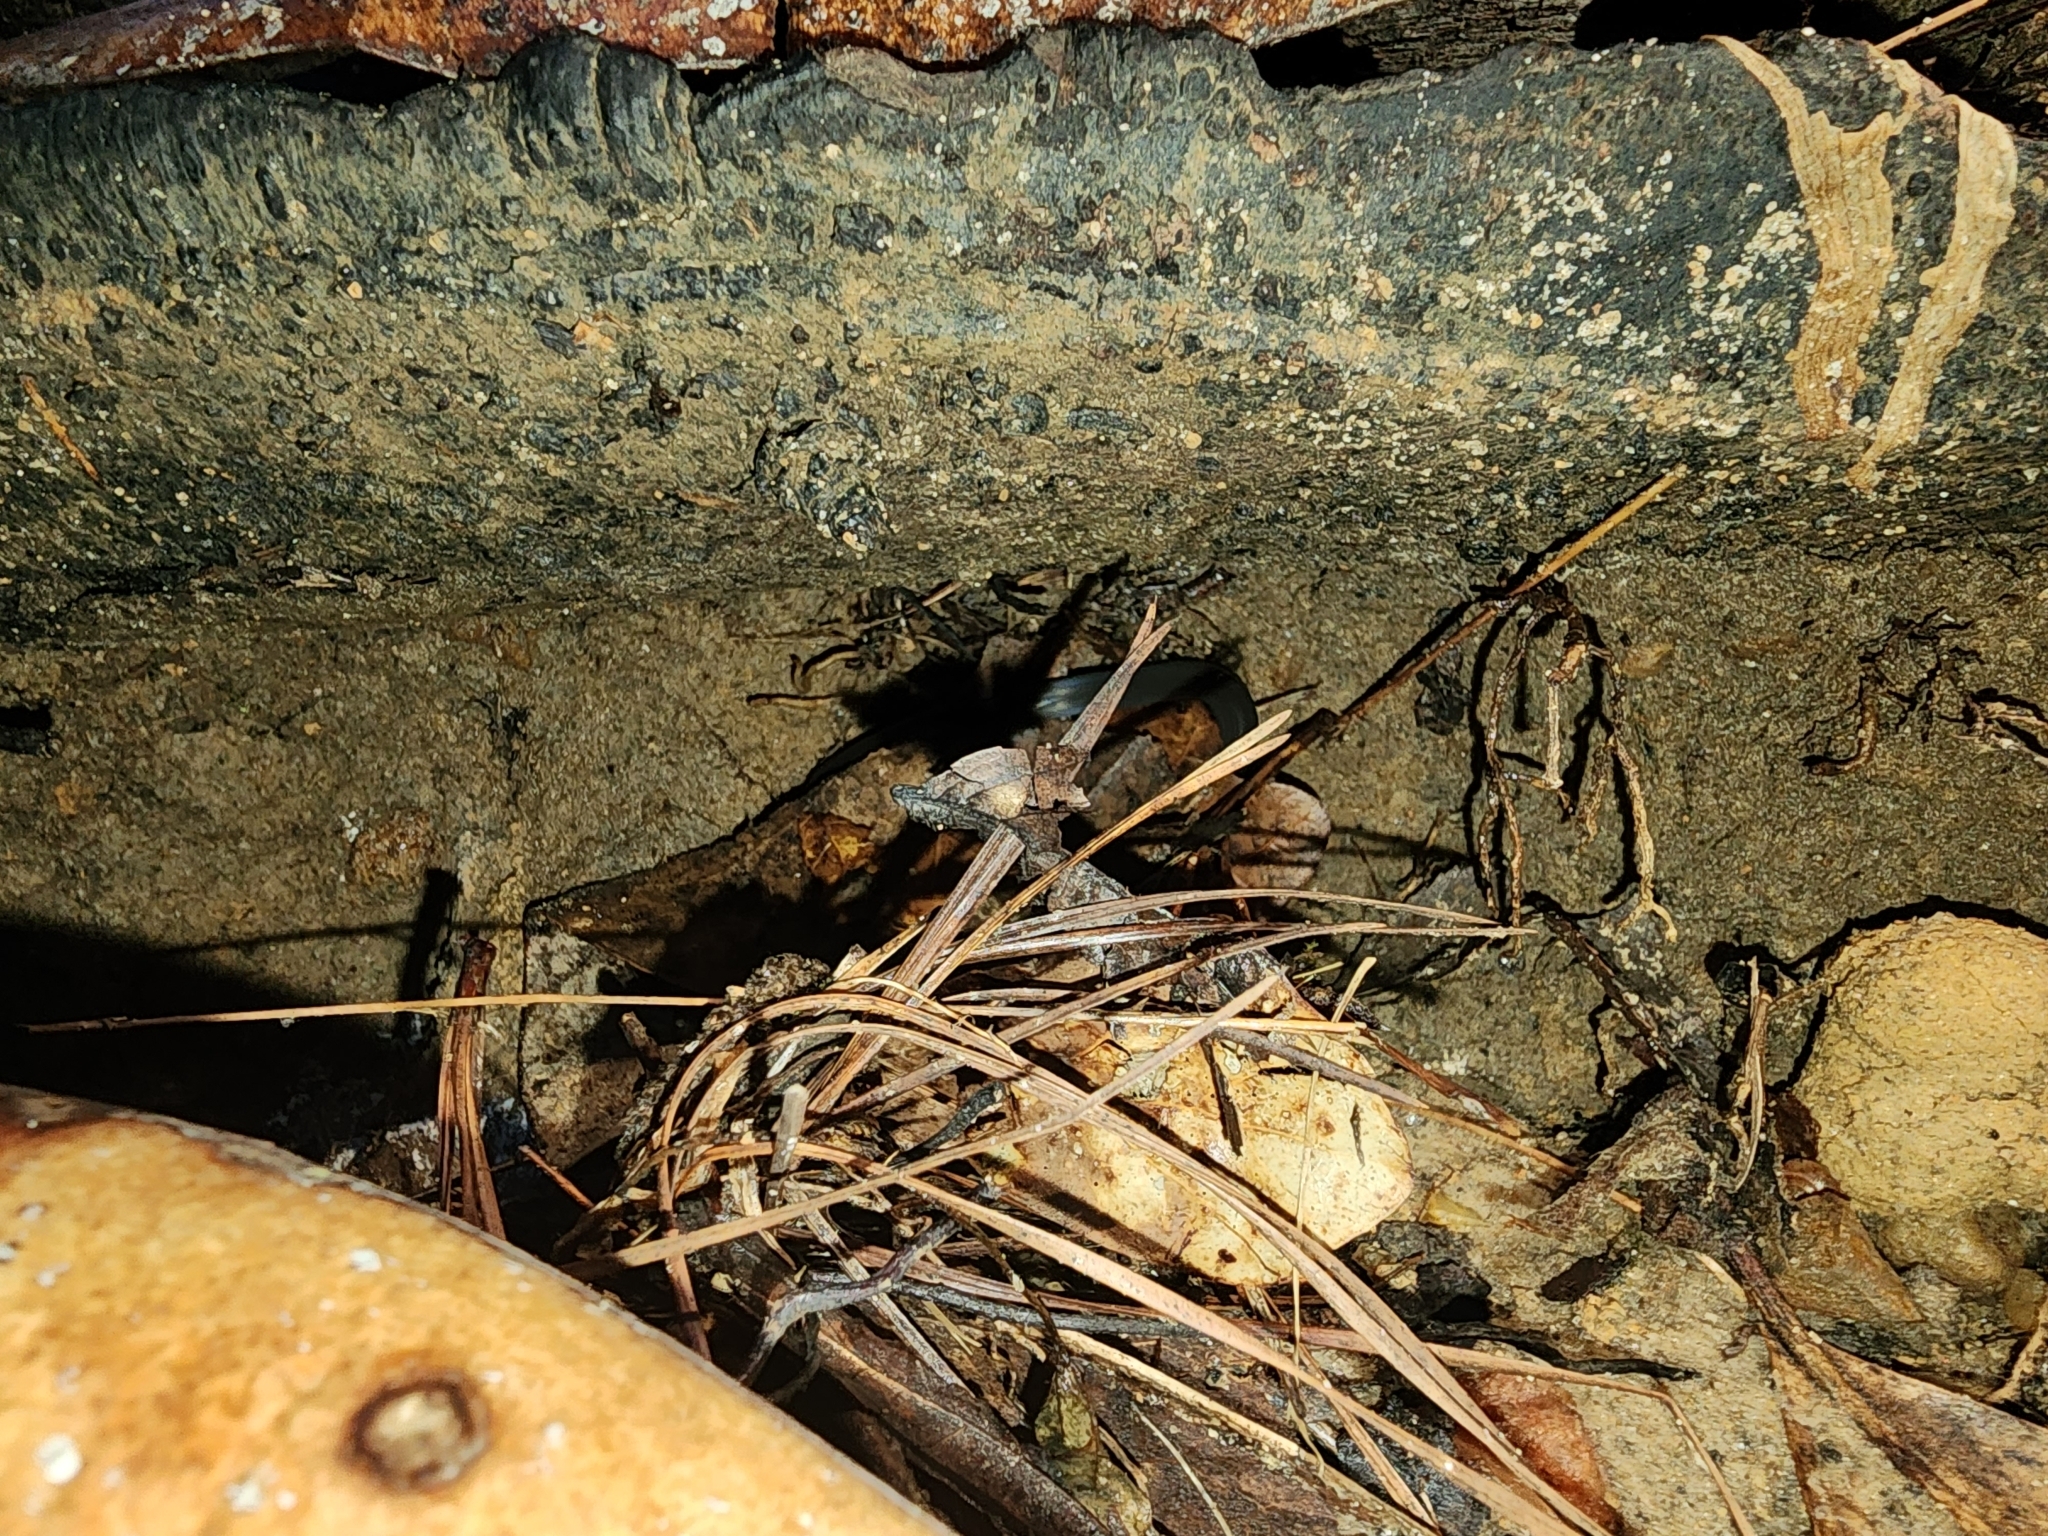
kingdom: Animalia
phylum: Chordata
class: Squamata
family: Colubridae
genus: Diadophis
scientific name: Diadophis punctatus
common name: Ringneck snake
